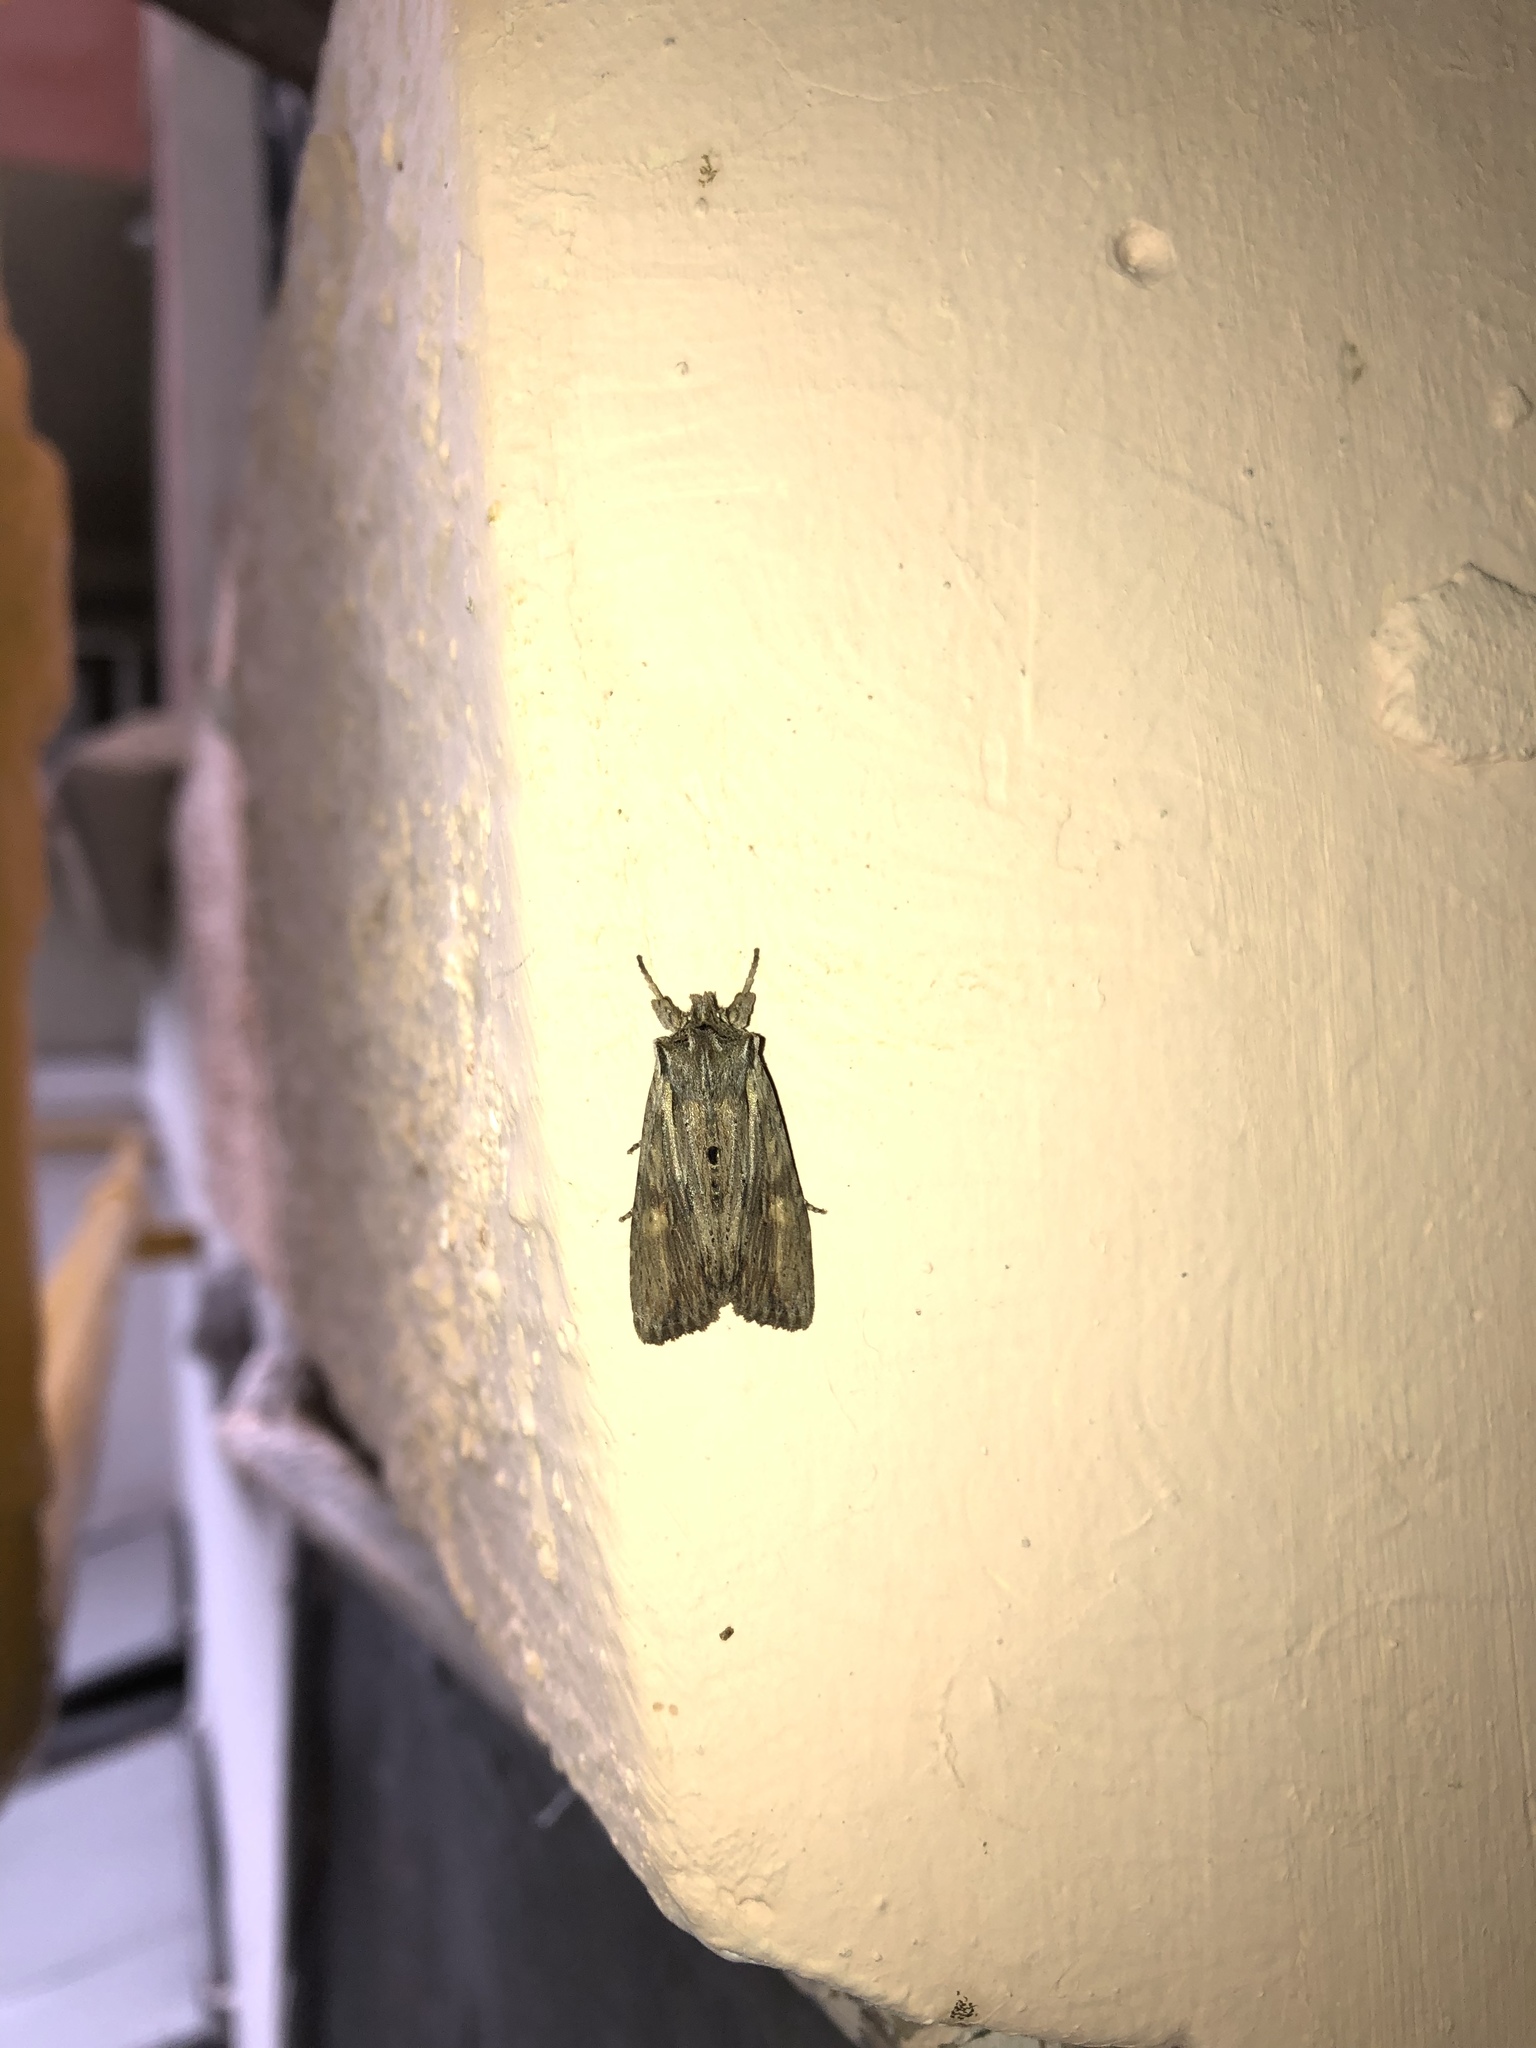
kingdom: Animalia
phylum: Arthropoda
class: Insecta
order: Lepidoptera
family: Noctuidae
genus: Lithophane
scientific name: Lithophane socia
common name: Pale pinion
